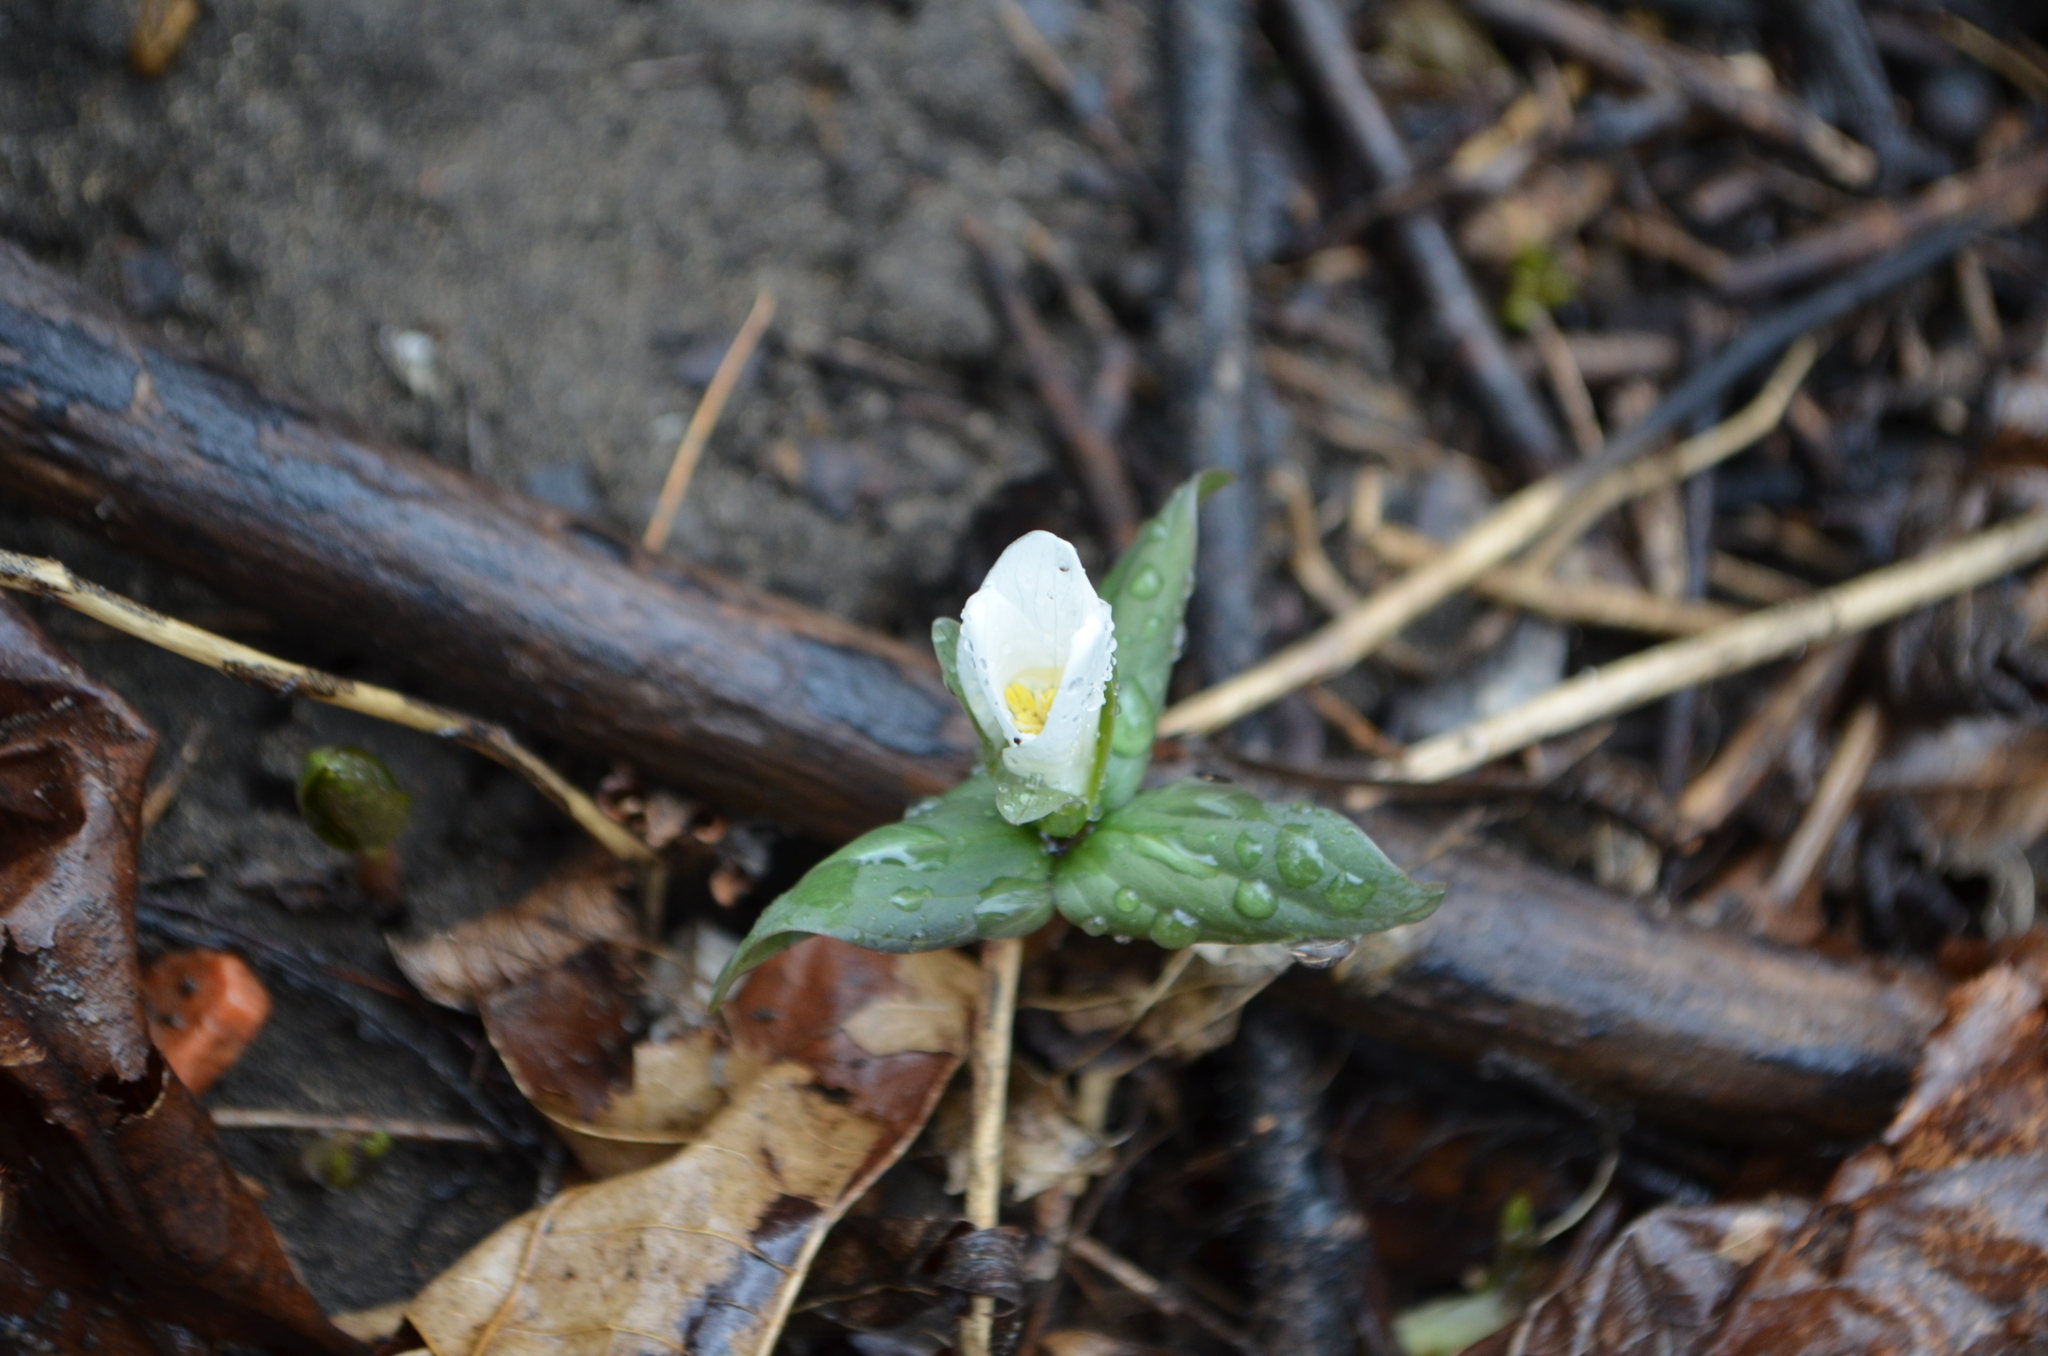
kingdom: Plantae
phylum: Tracheophyta
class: Liliopsida
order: Liliales
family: Melanthiaceae
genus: Trillium
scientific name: Trillium nivale
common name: Dwarf white trillium
